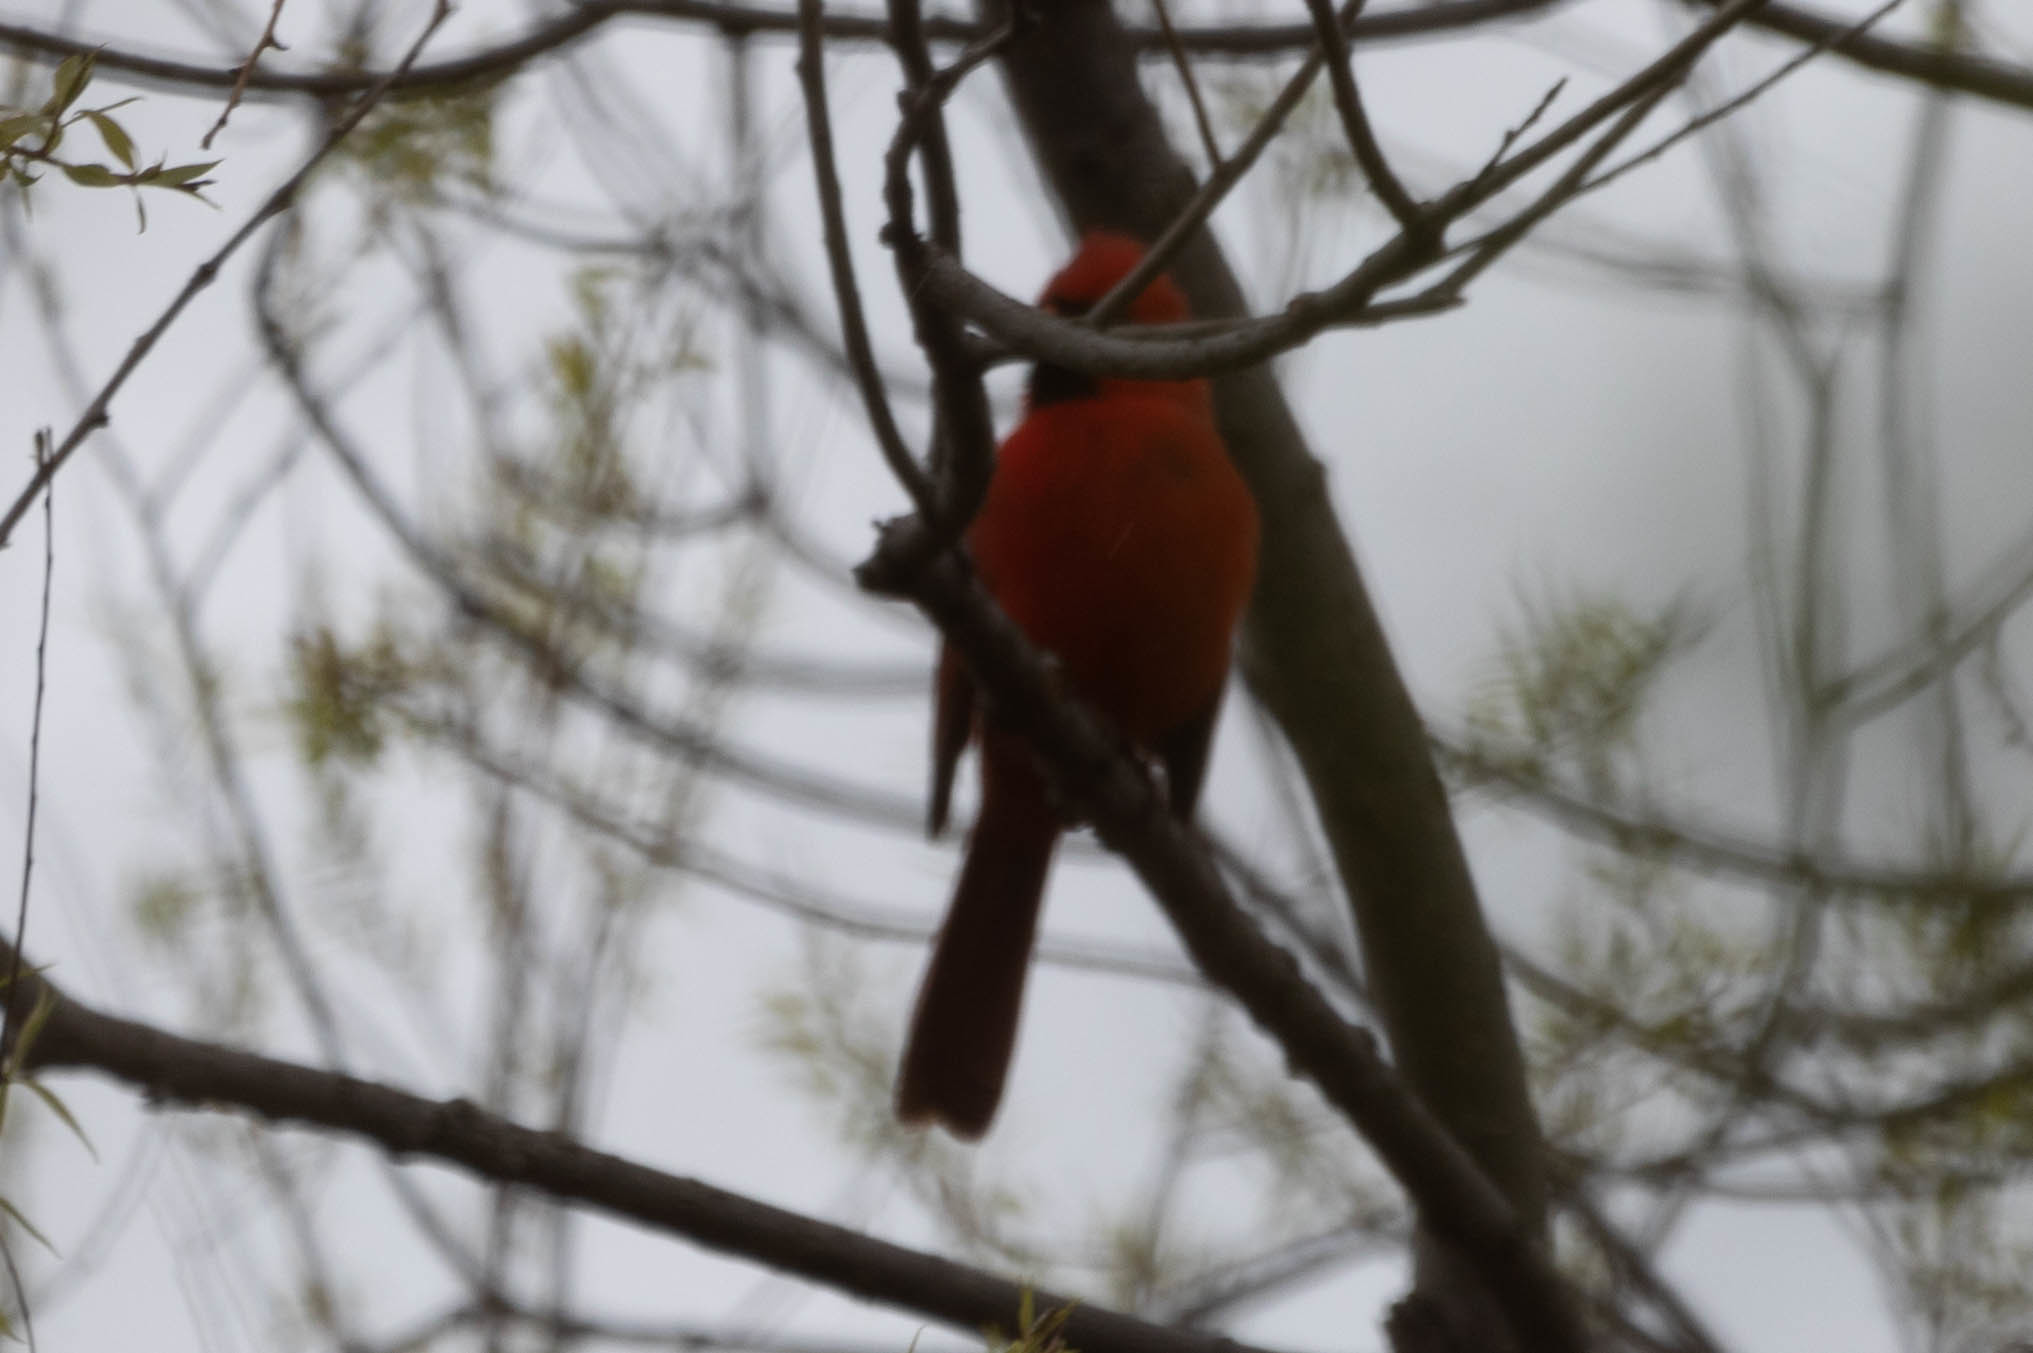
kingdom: Animalia
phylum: Chordata
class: Aves
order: Passeriformes
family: Cardinalidae
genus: Cardinalis
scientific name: Cardinalis cardinalis
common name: Northern cardinal
